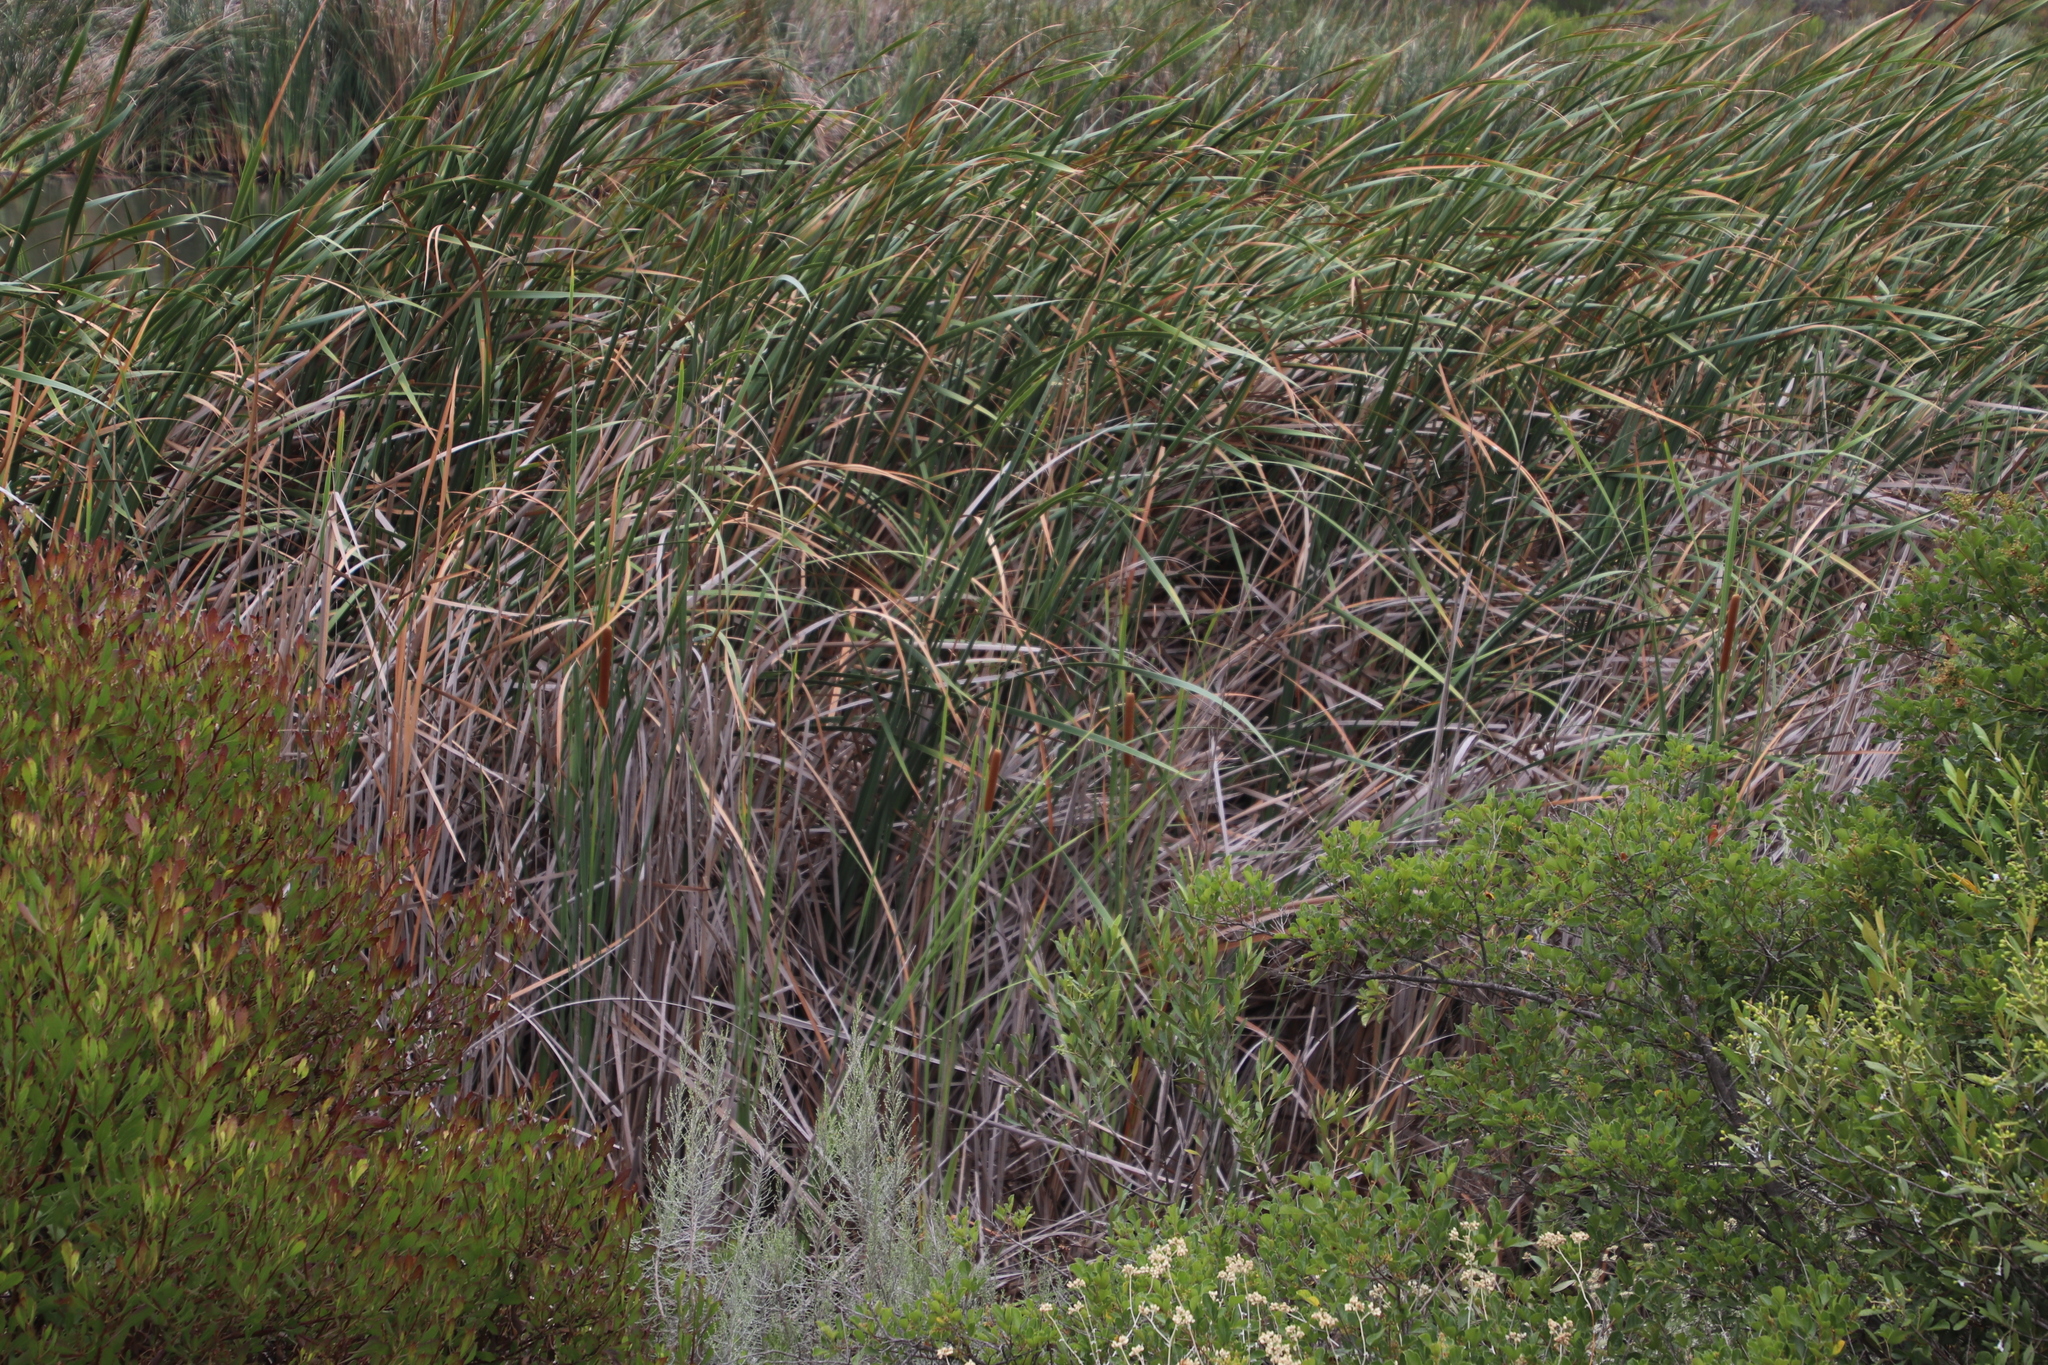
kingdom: Plantae
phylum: Tracheophyta
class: Liliopsida
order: Poales
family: Typhaceae
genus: Typha
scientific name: Typha capensis
